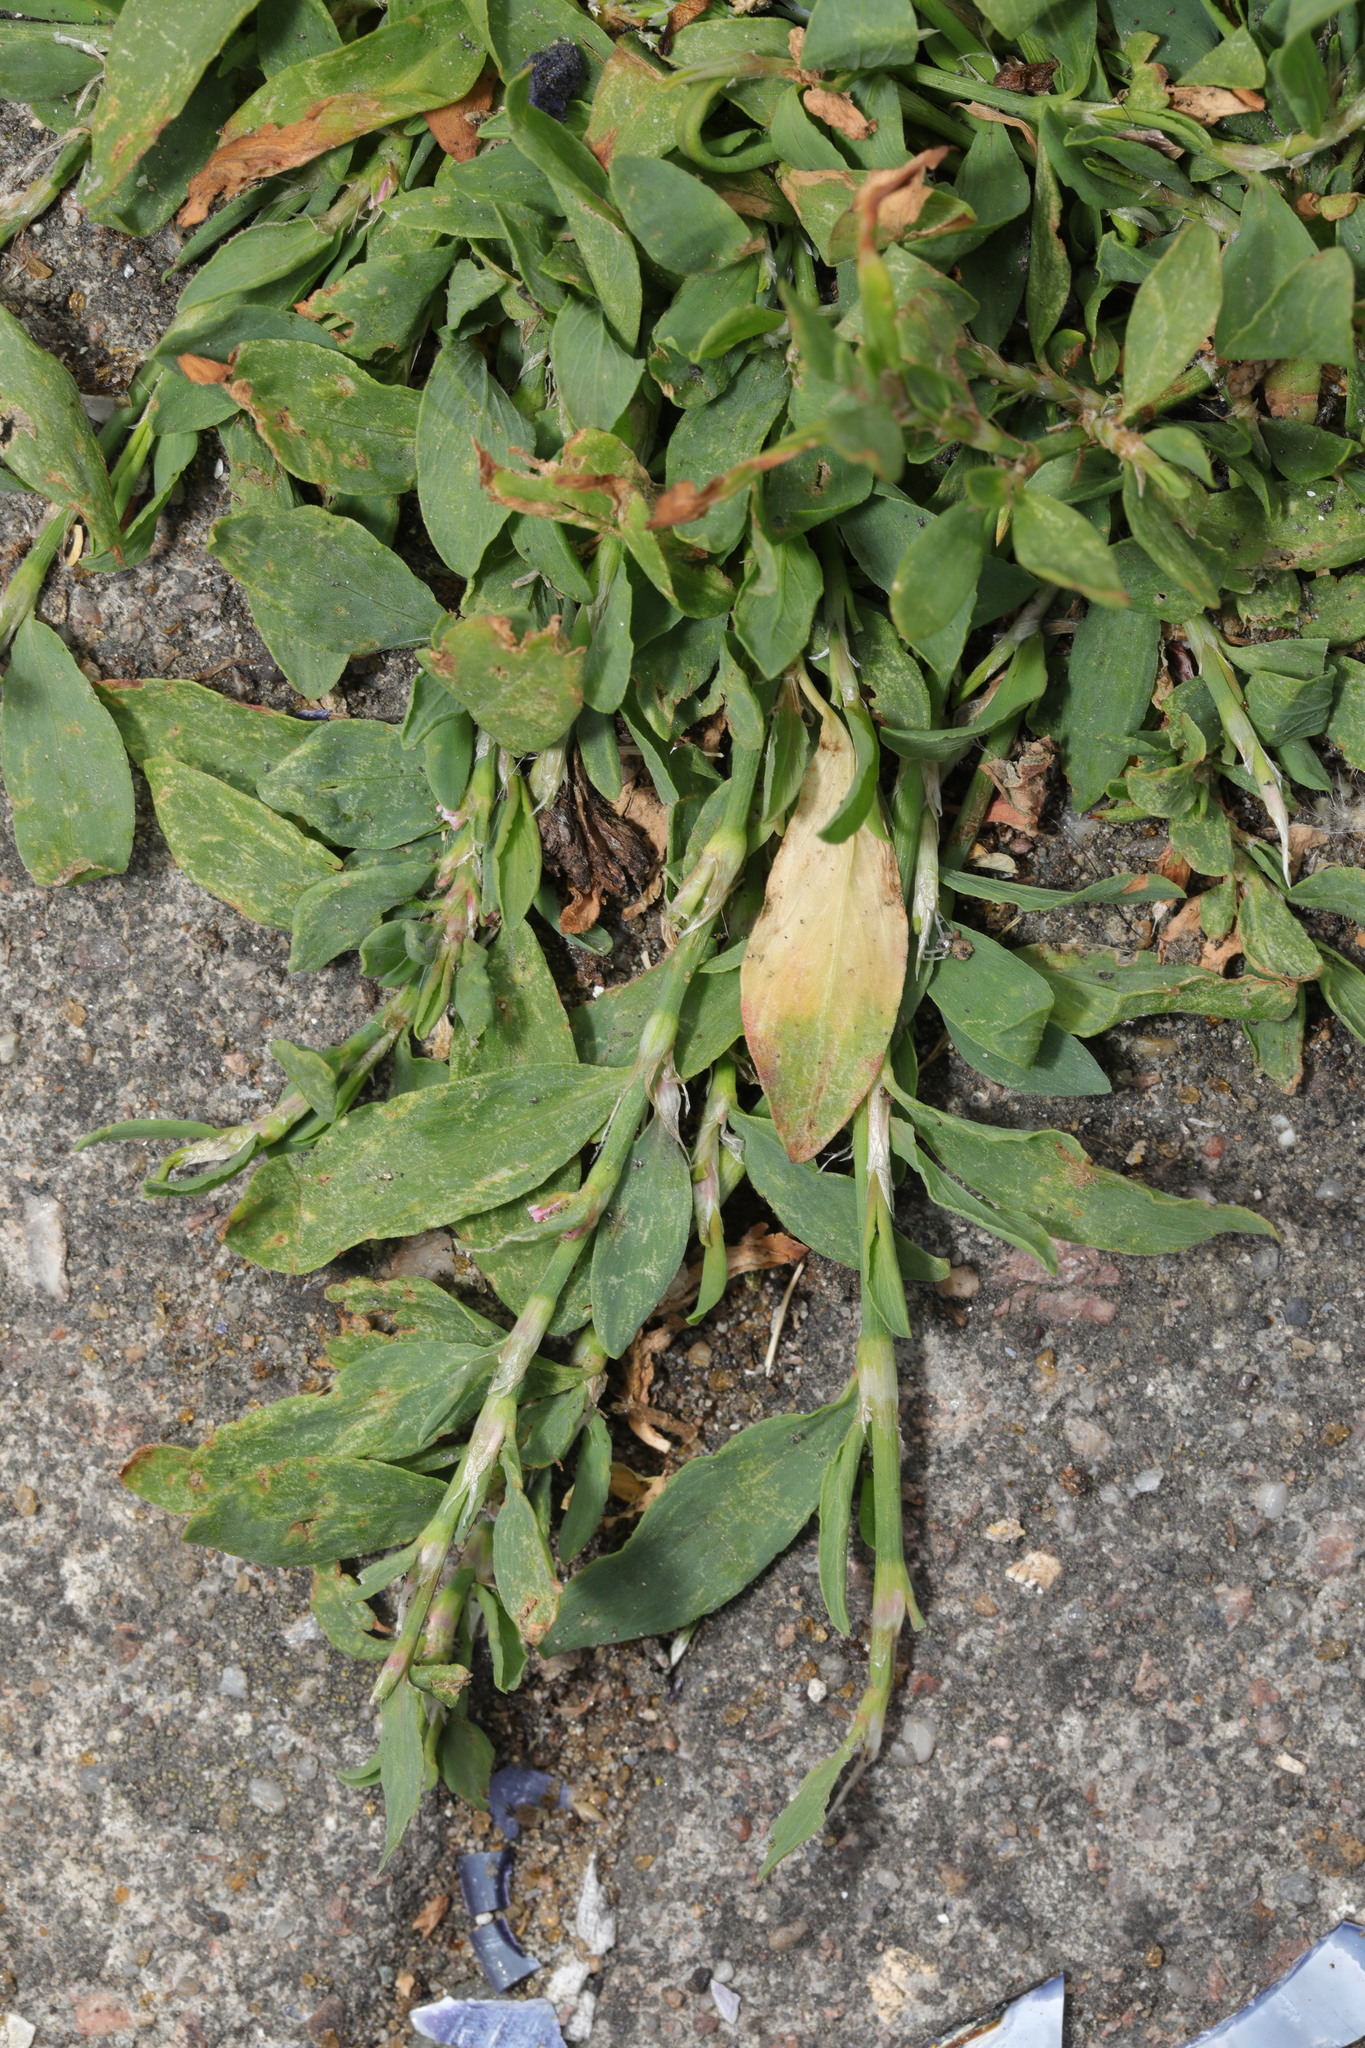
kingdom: Plantae
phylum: Tracheophyta
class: Magnoliopsida
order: Caryophyllales
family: Polygonaceae
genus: Polygonum
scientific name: Polygonum aviculare
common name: Prostrate knotweed
